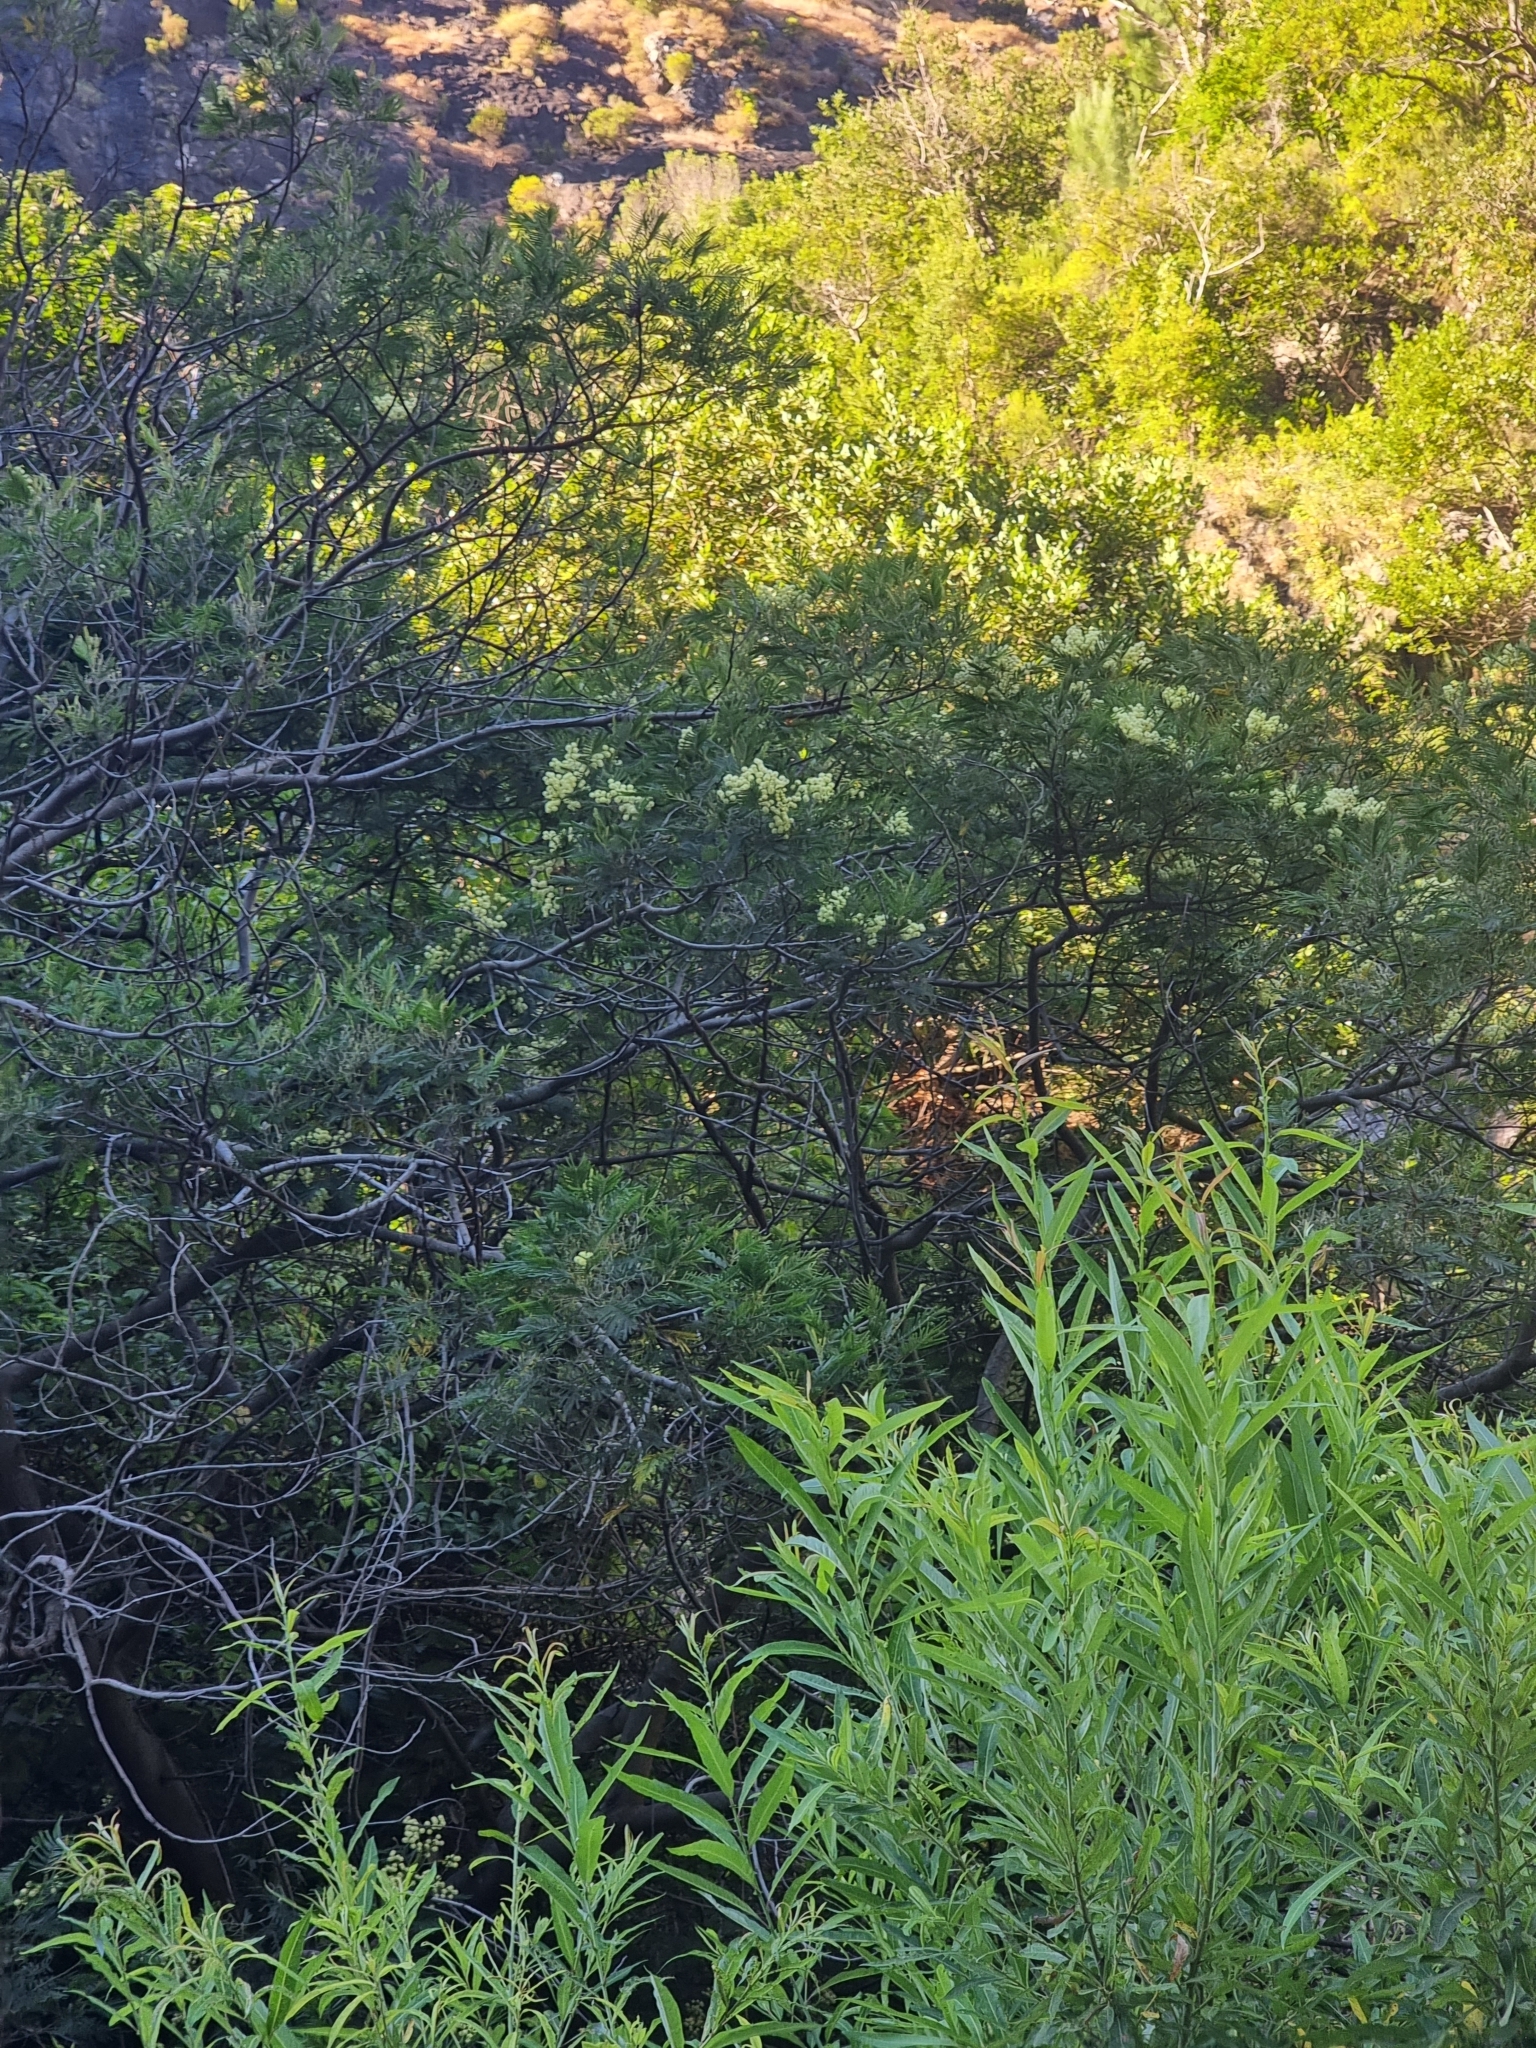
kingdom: Plantae
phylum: Tracheophyta
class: Magnoliopsida
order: Fabales
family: Fabaceae
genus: Acacia
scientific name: Acacia mearnsii
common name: Black wattle
